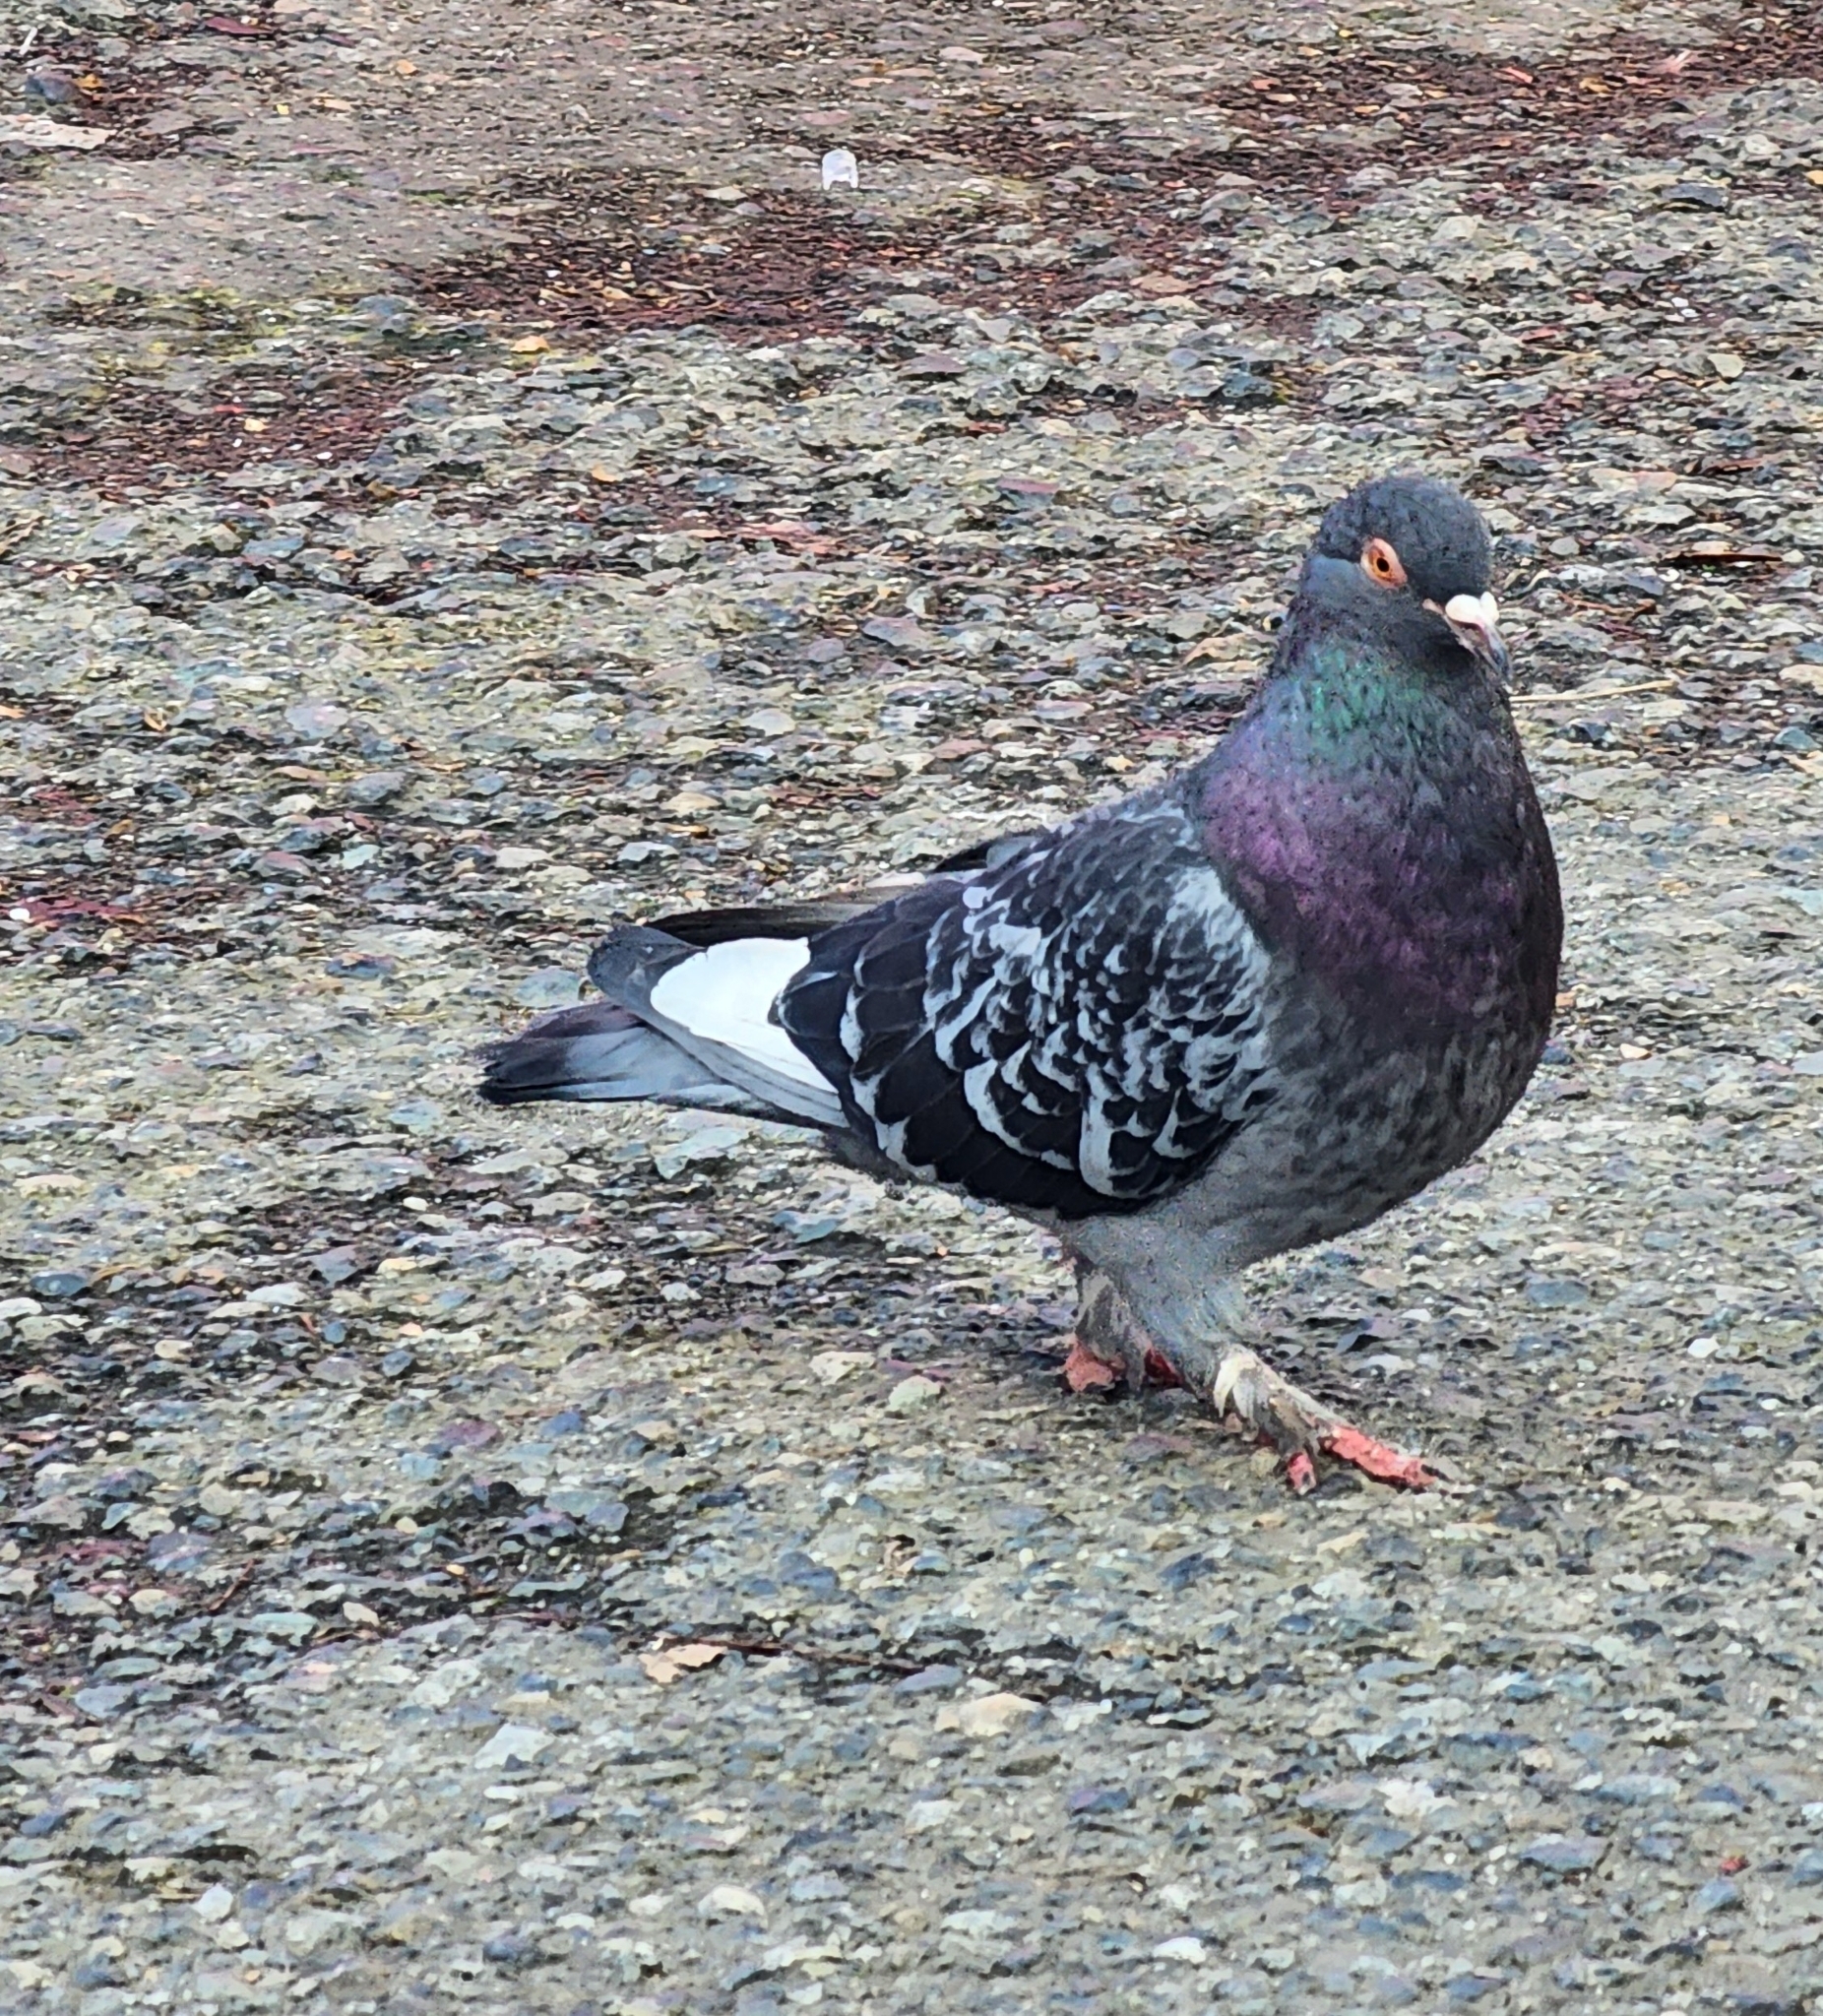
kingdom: Animalia
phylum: Chordata
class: Aves
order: Columbiformes
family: Columbidae
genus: Columba
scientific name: Columba livia
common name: Rock pigeon
